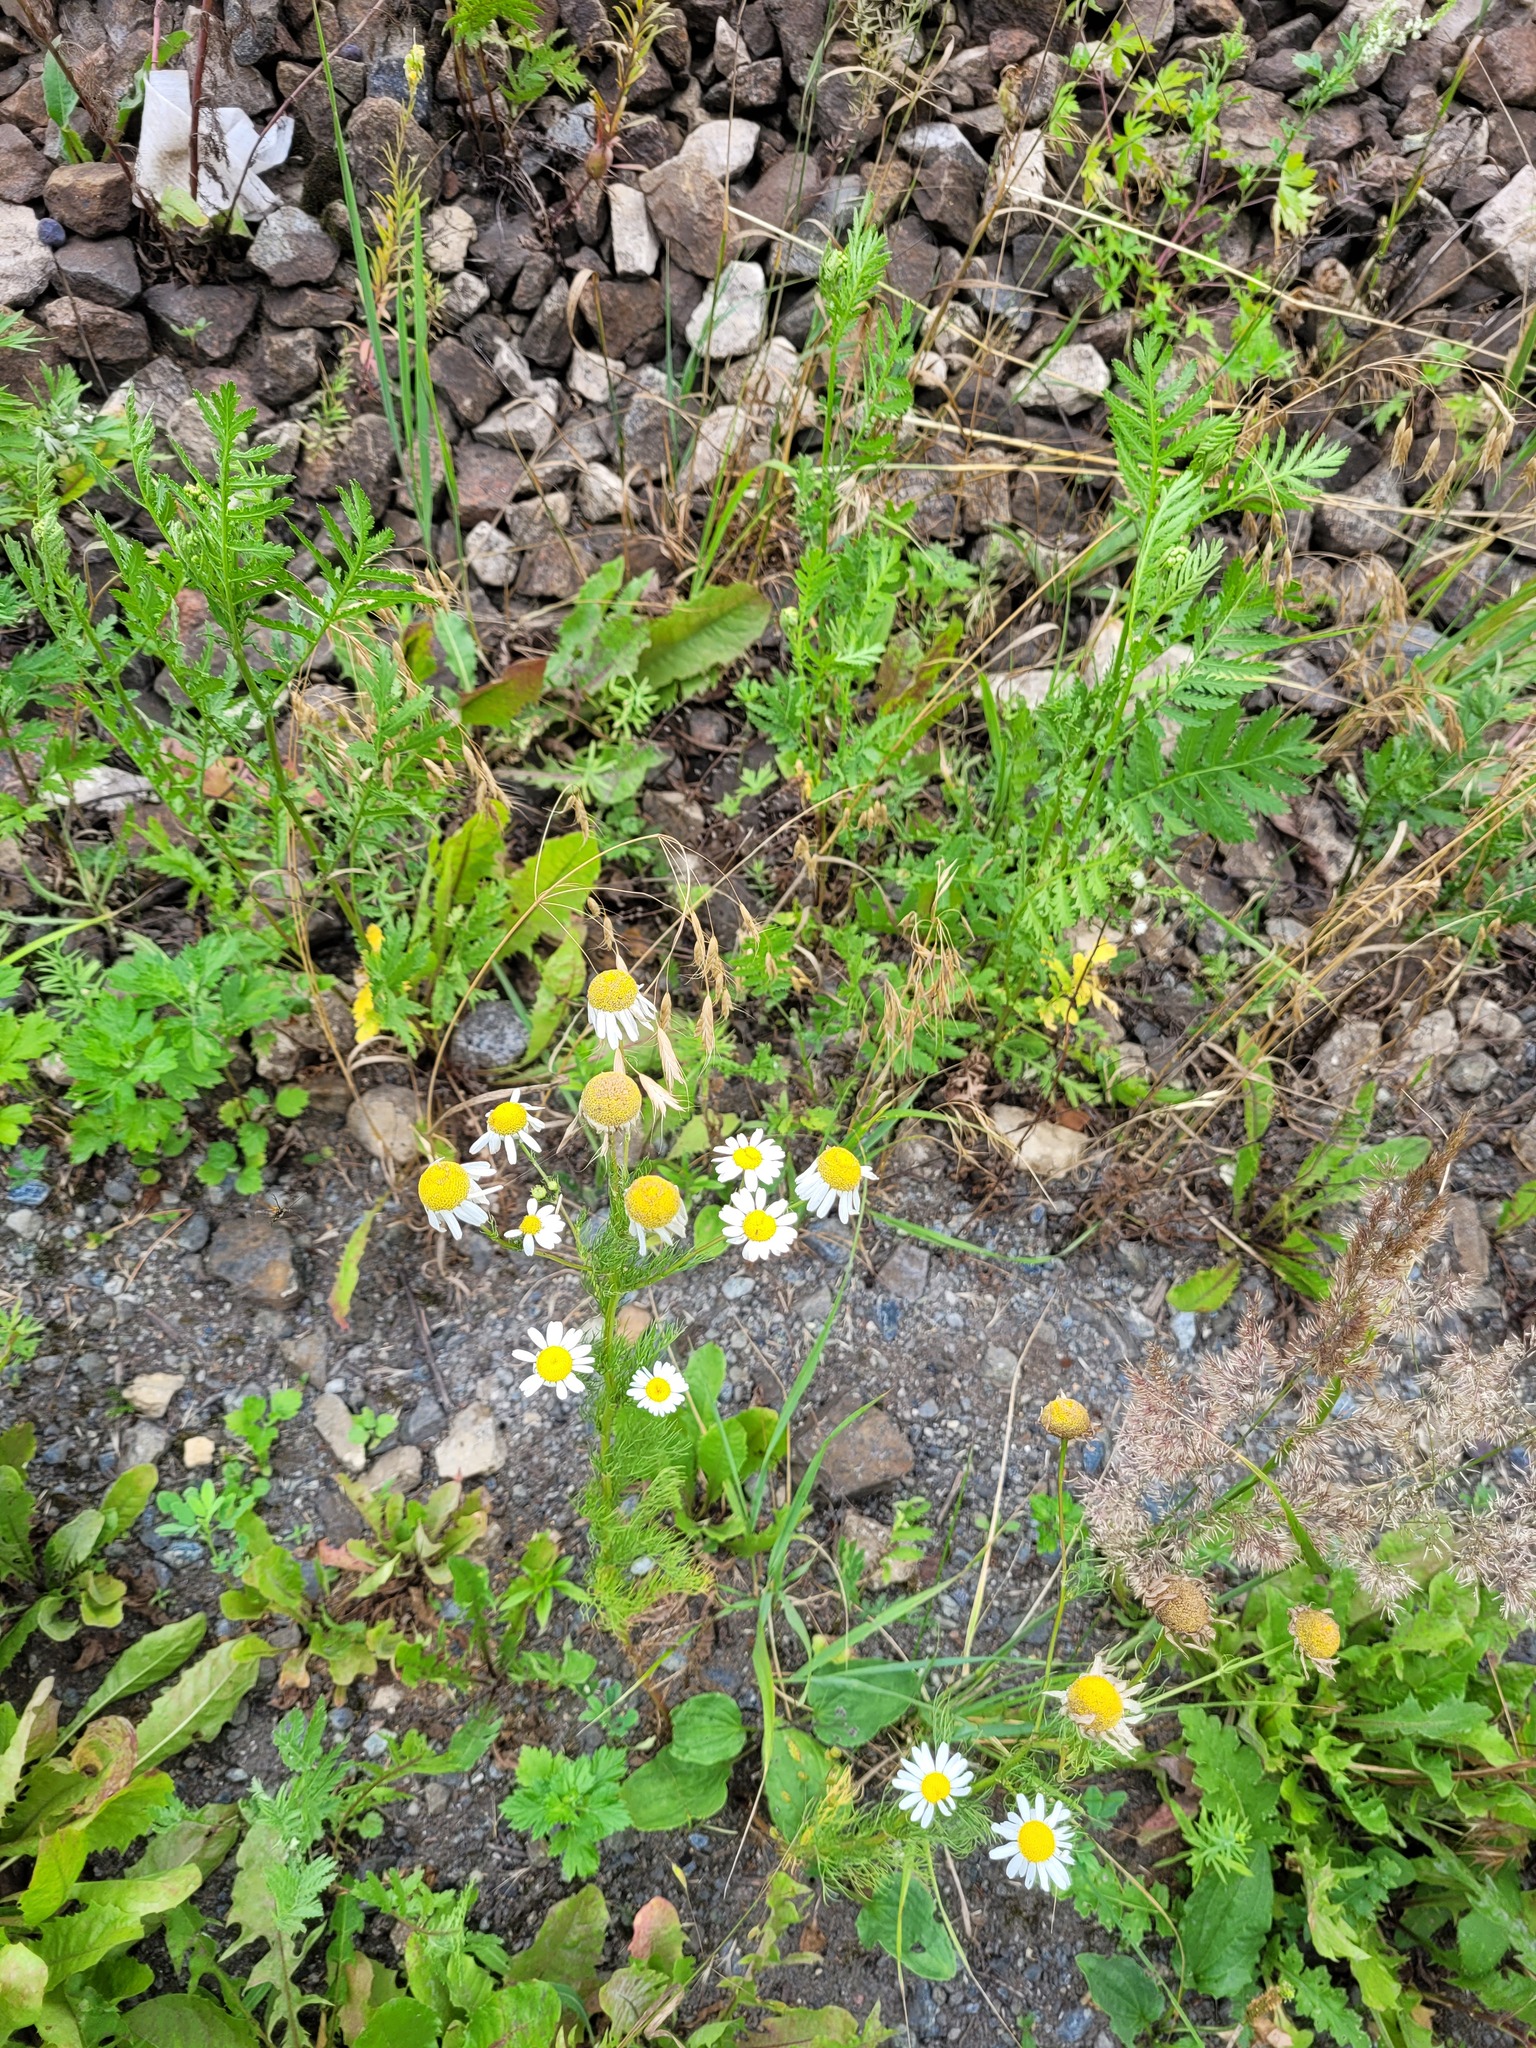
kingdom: Plantae
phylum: Tracheophyta
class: Magnoliopsida
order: Asterales
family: Asteraceae
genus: Tripleurospermum
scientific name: Tripleurospermum inodorum
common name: Scentless mayweed
